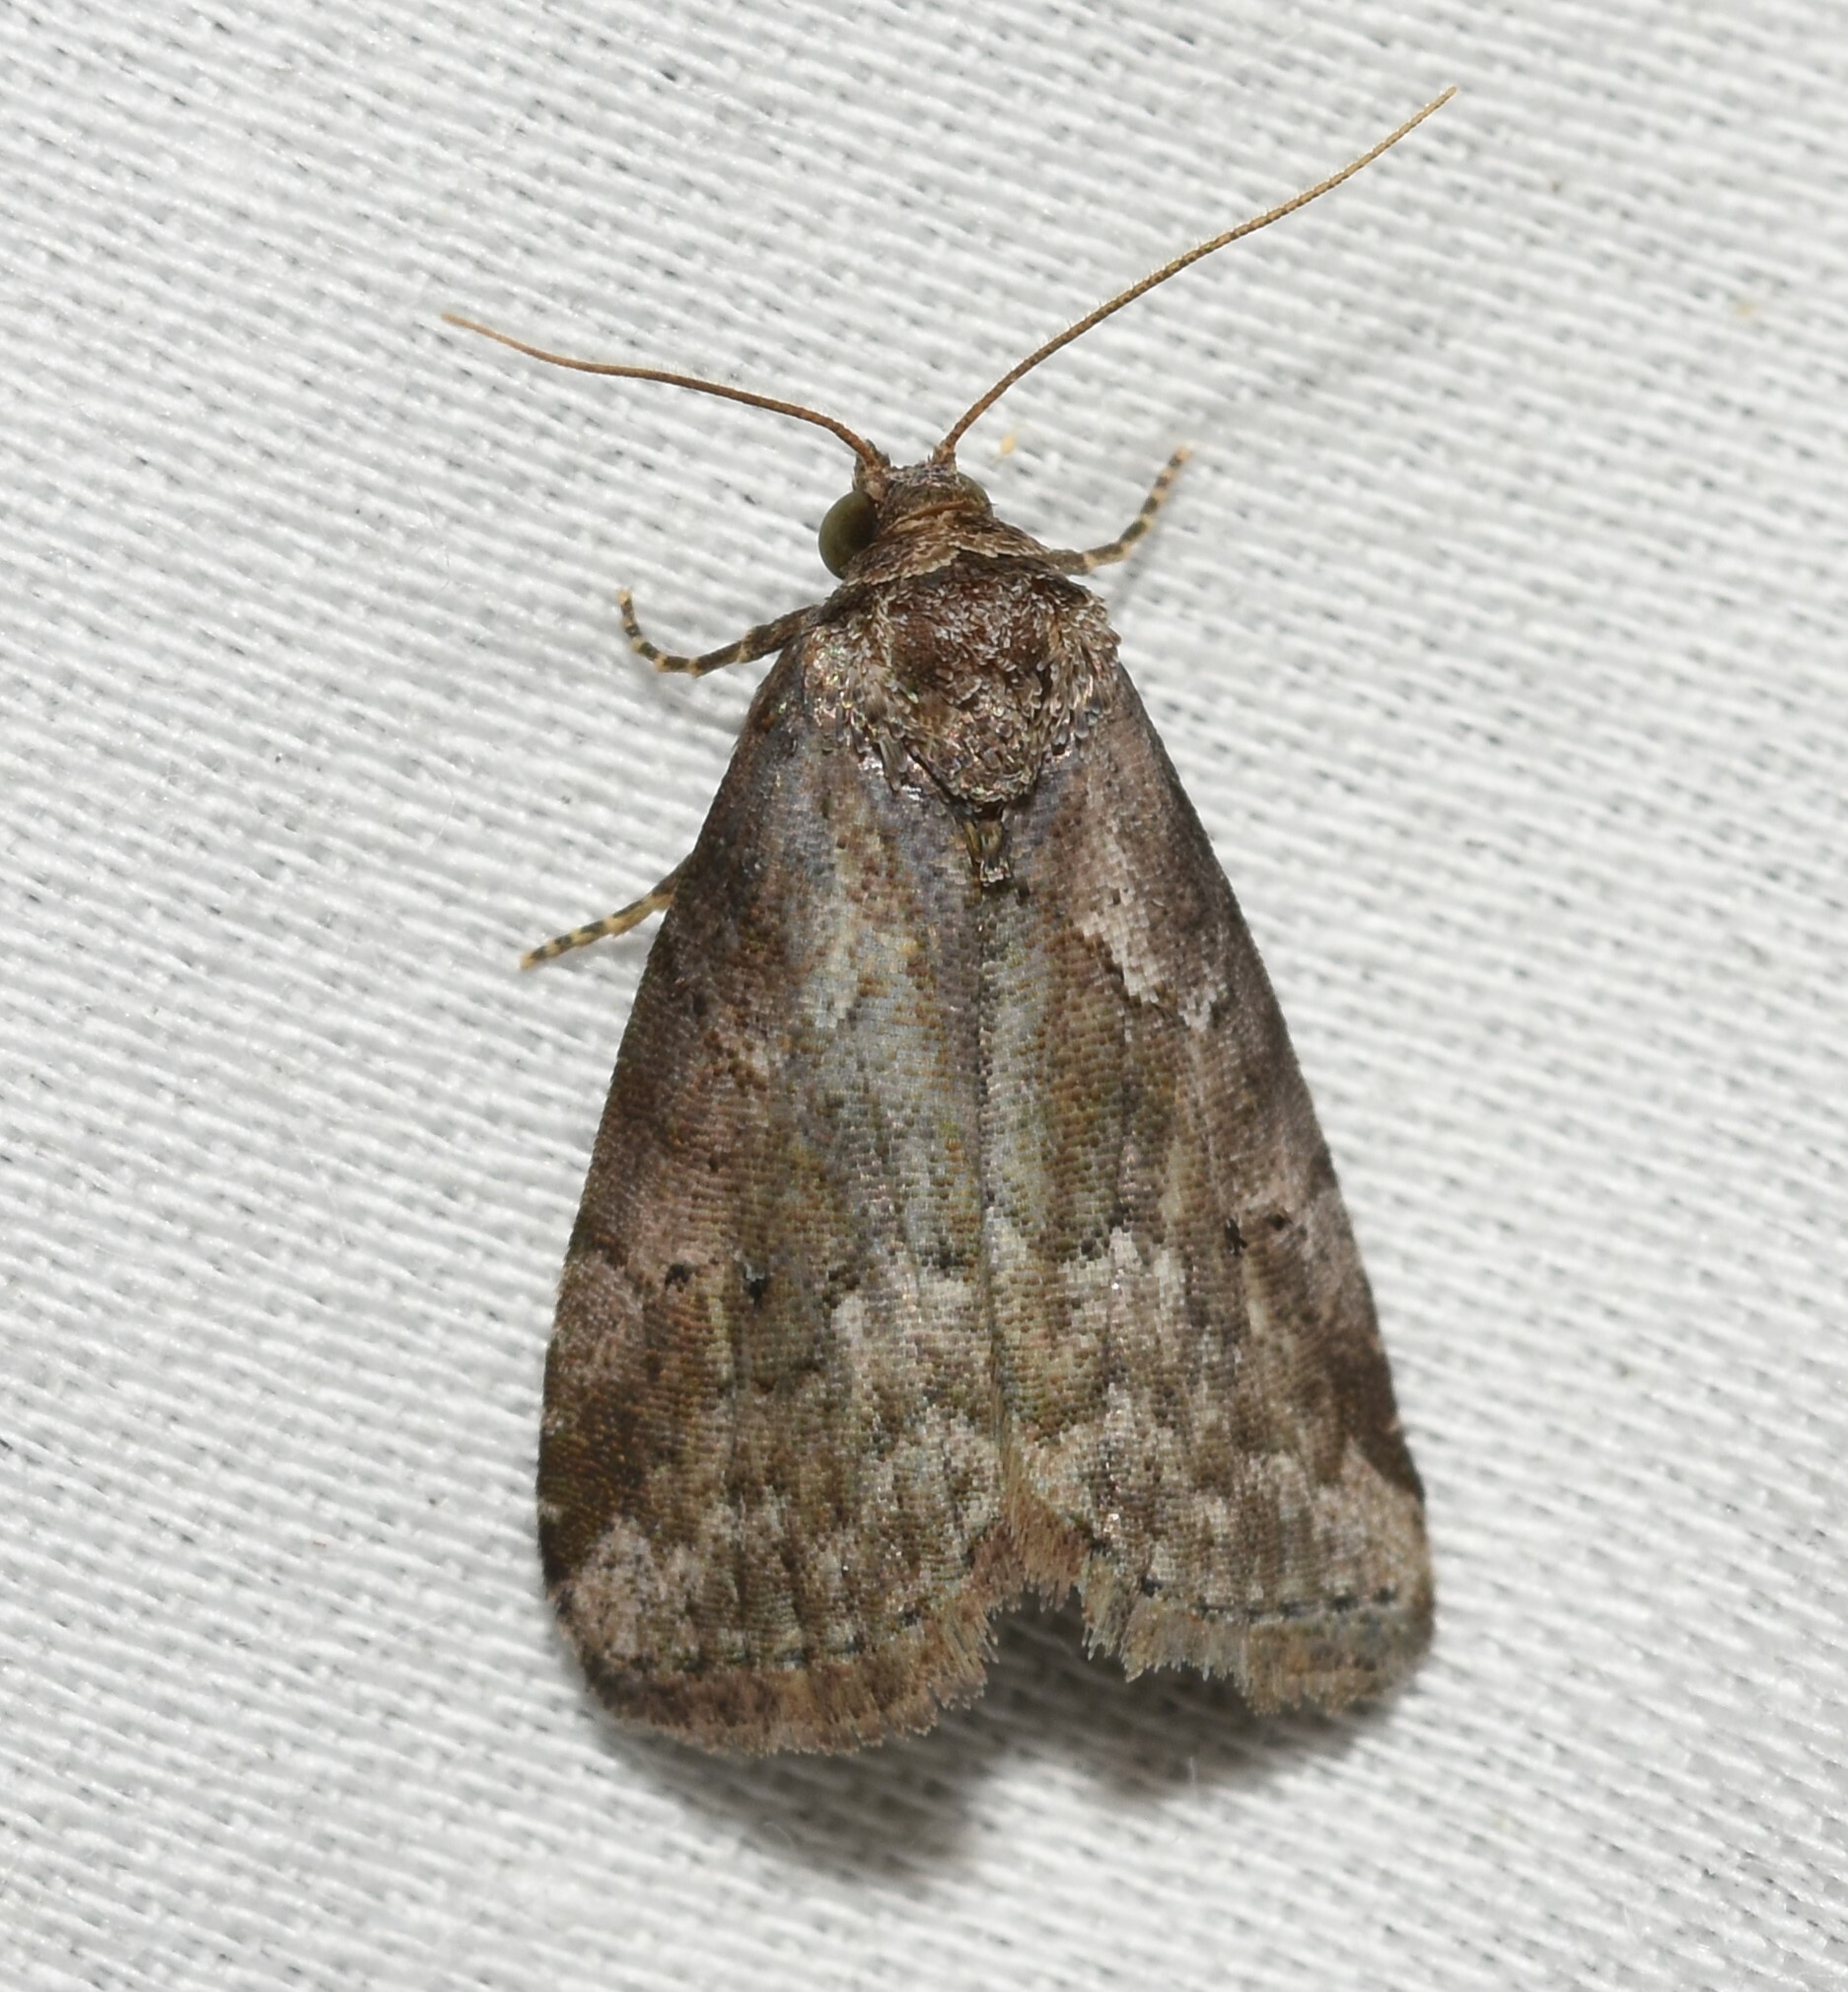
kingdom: Animalia
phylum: Arthropoda
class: Insecta
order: Lepidoptera
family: Erebidae
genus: Hyperstrotia
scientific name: Hyperstrotia nana
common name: White-lined graylet
